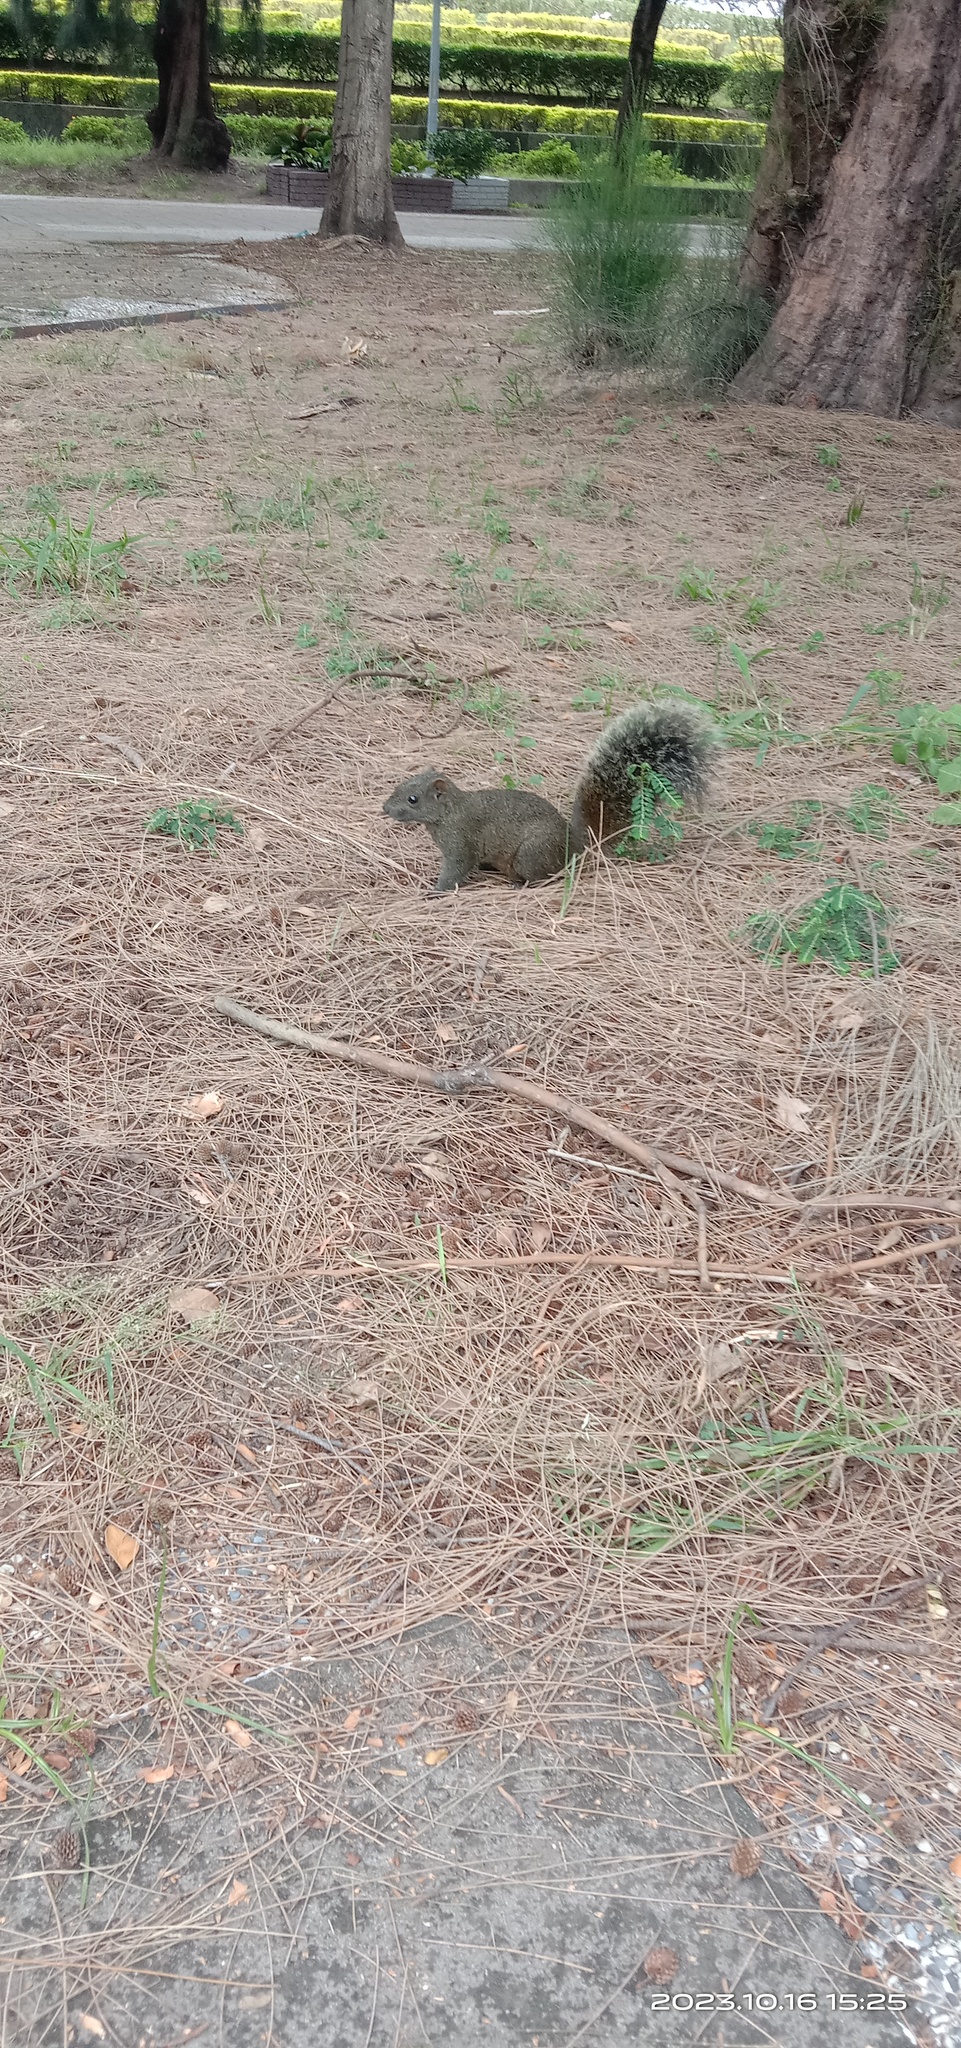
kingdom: Animalia
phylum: Chordata
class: Mammalia
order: Rodentia
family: Sciuridae
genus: Callosciurus
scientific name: Callosciurus erythraeus
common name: Pallas's squirrel
